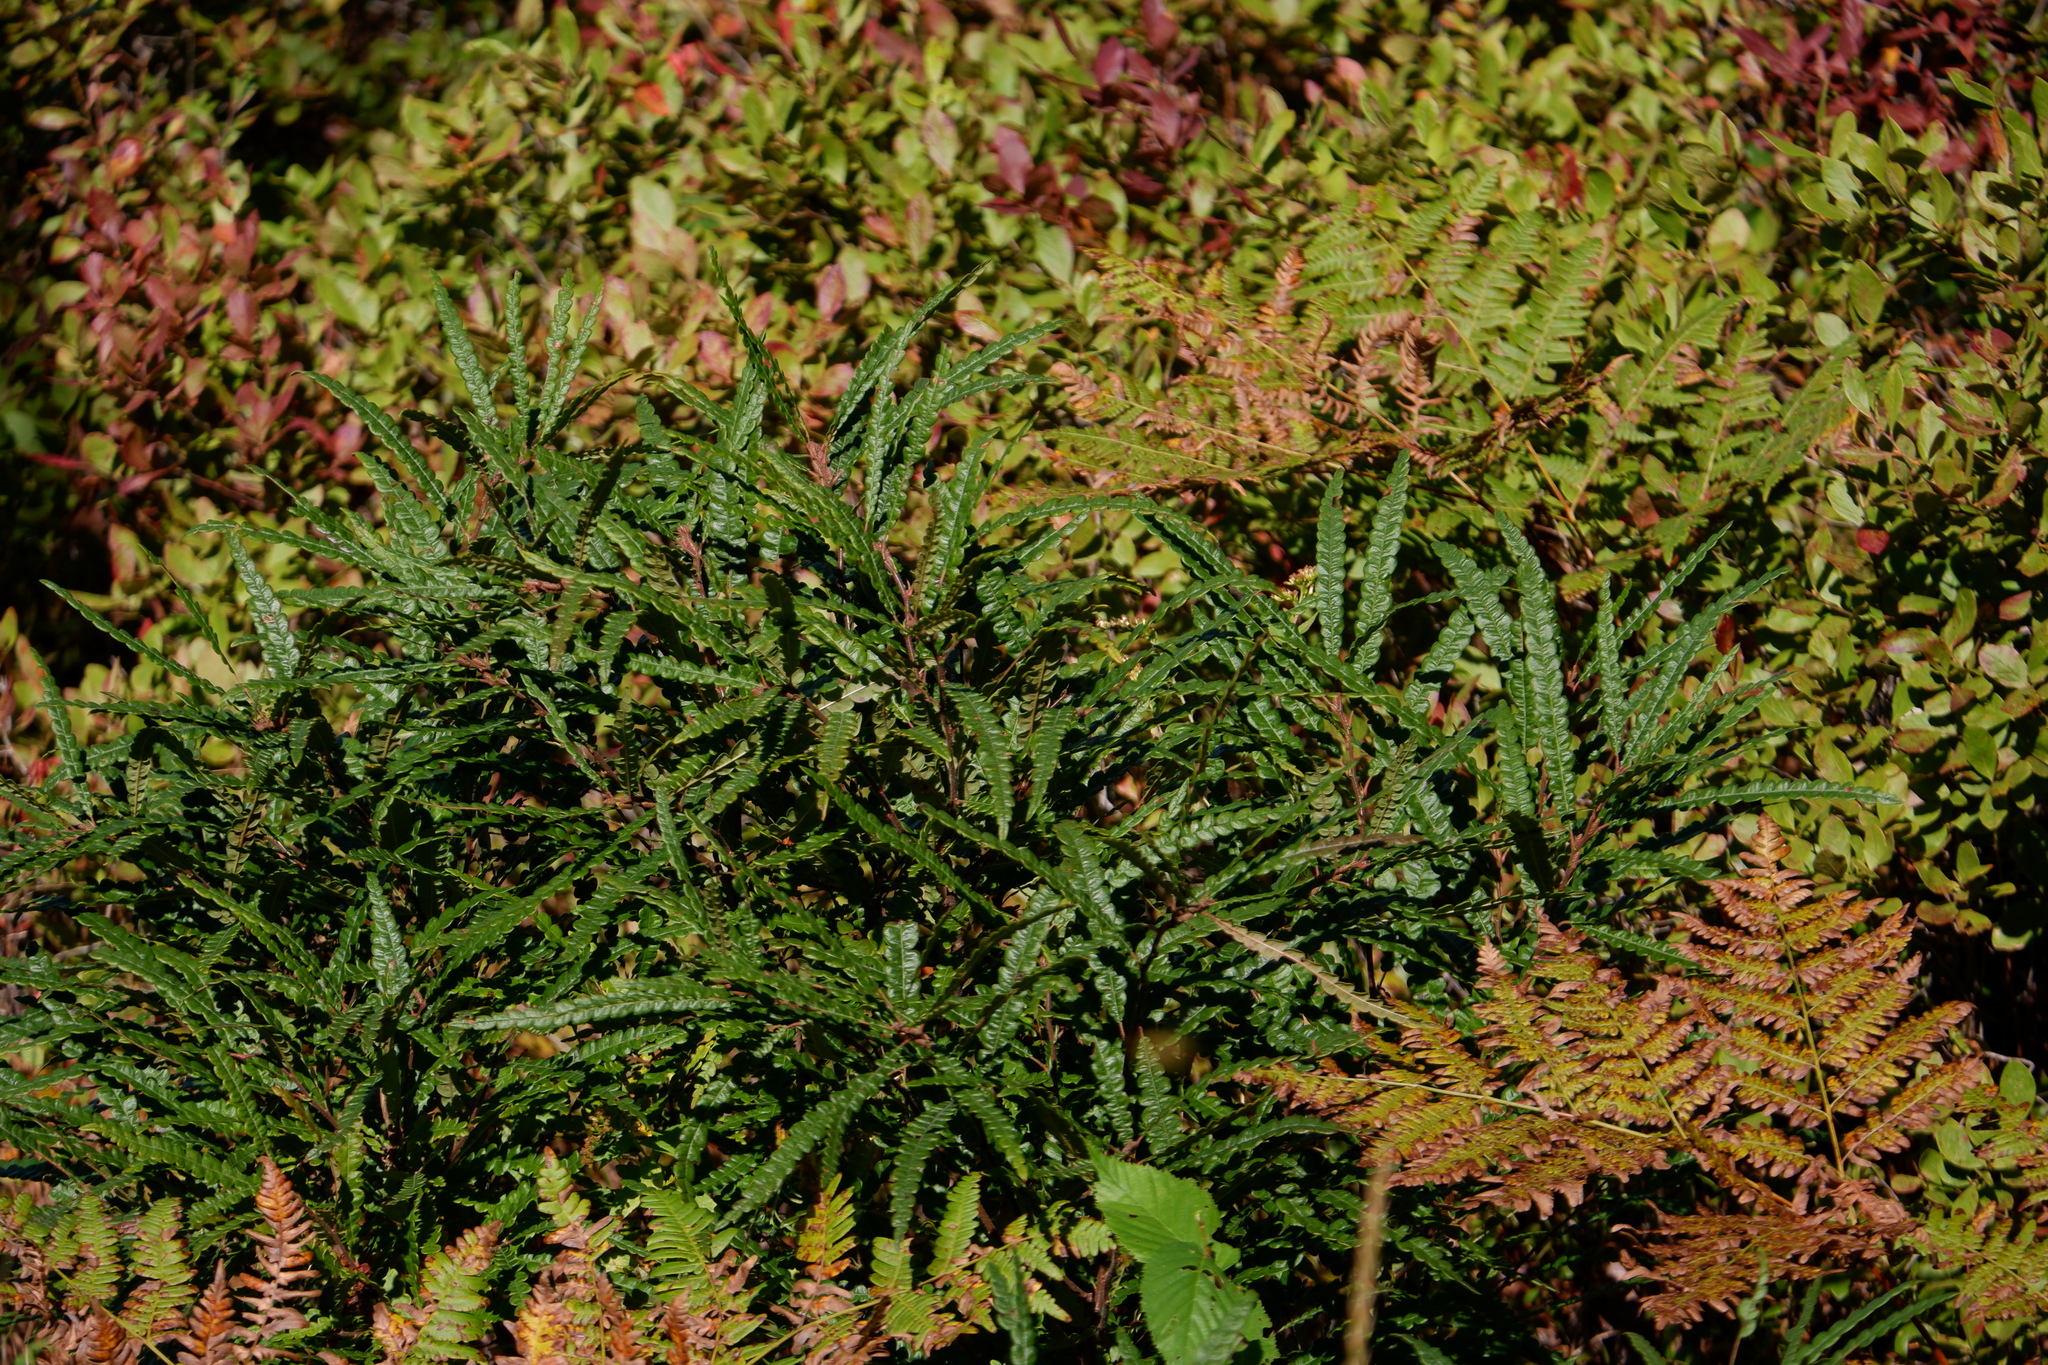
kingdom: Plantae
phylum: Tracheophyta
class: Magnoliopsida
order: Fagales
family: Myricaceae
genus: Comptonia
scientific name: Comptonia peregrina
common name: Sweet-fern
